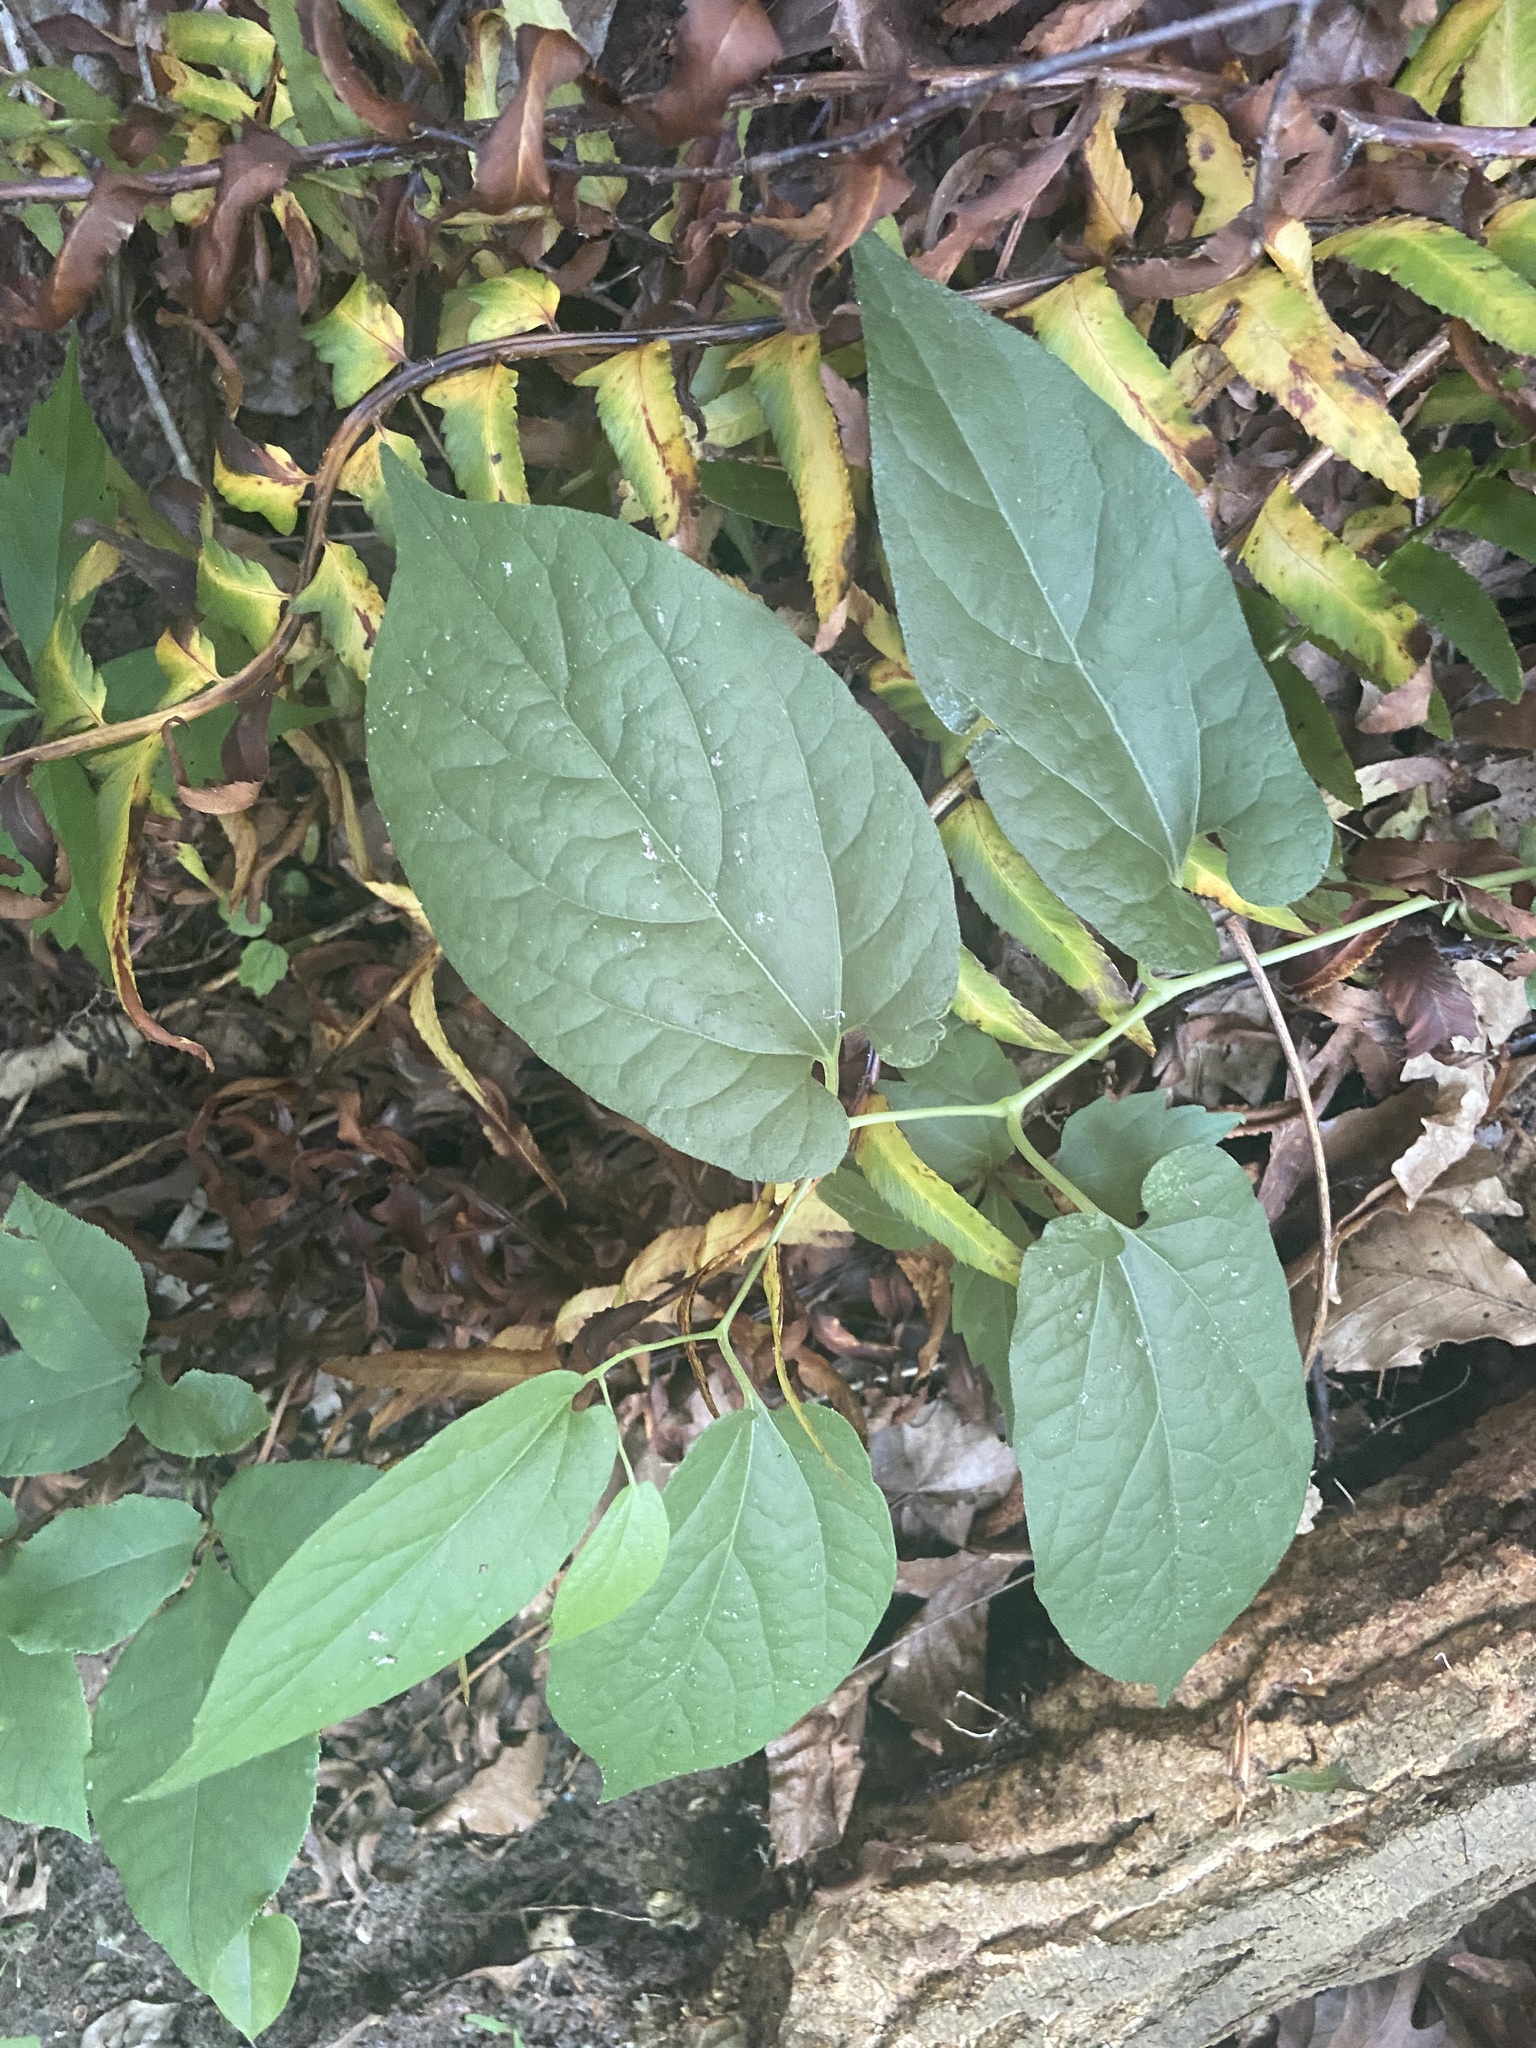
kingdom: Plantae
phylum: Tracheophyta
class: Magnoliopsida
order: Piperales
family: Aristolochiaceae
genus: Endodeca
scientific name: Endodeca serpentaria
